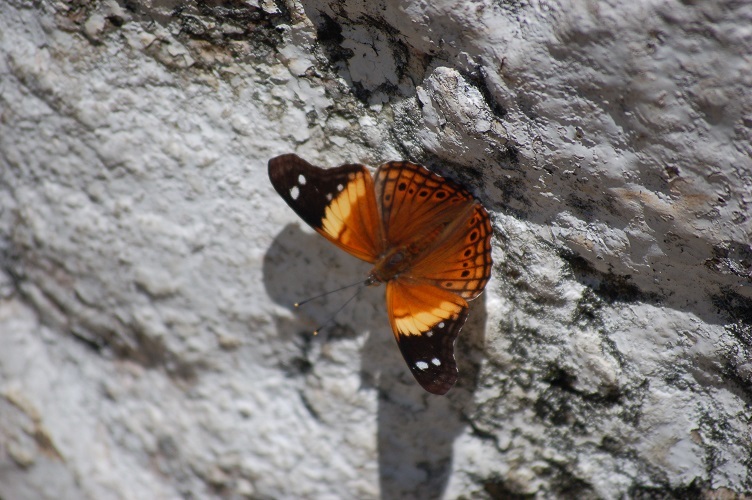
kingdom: Animalia
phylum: Arthropoda
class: Insecta
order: Lepidoptera
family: Nymphalidae
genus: Asterocampa
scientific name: Asterocampa idyja
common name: Dusky emperor
